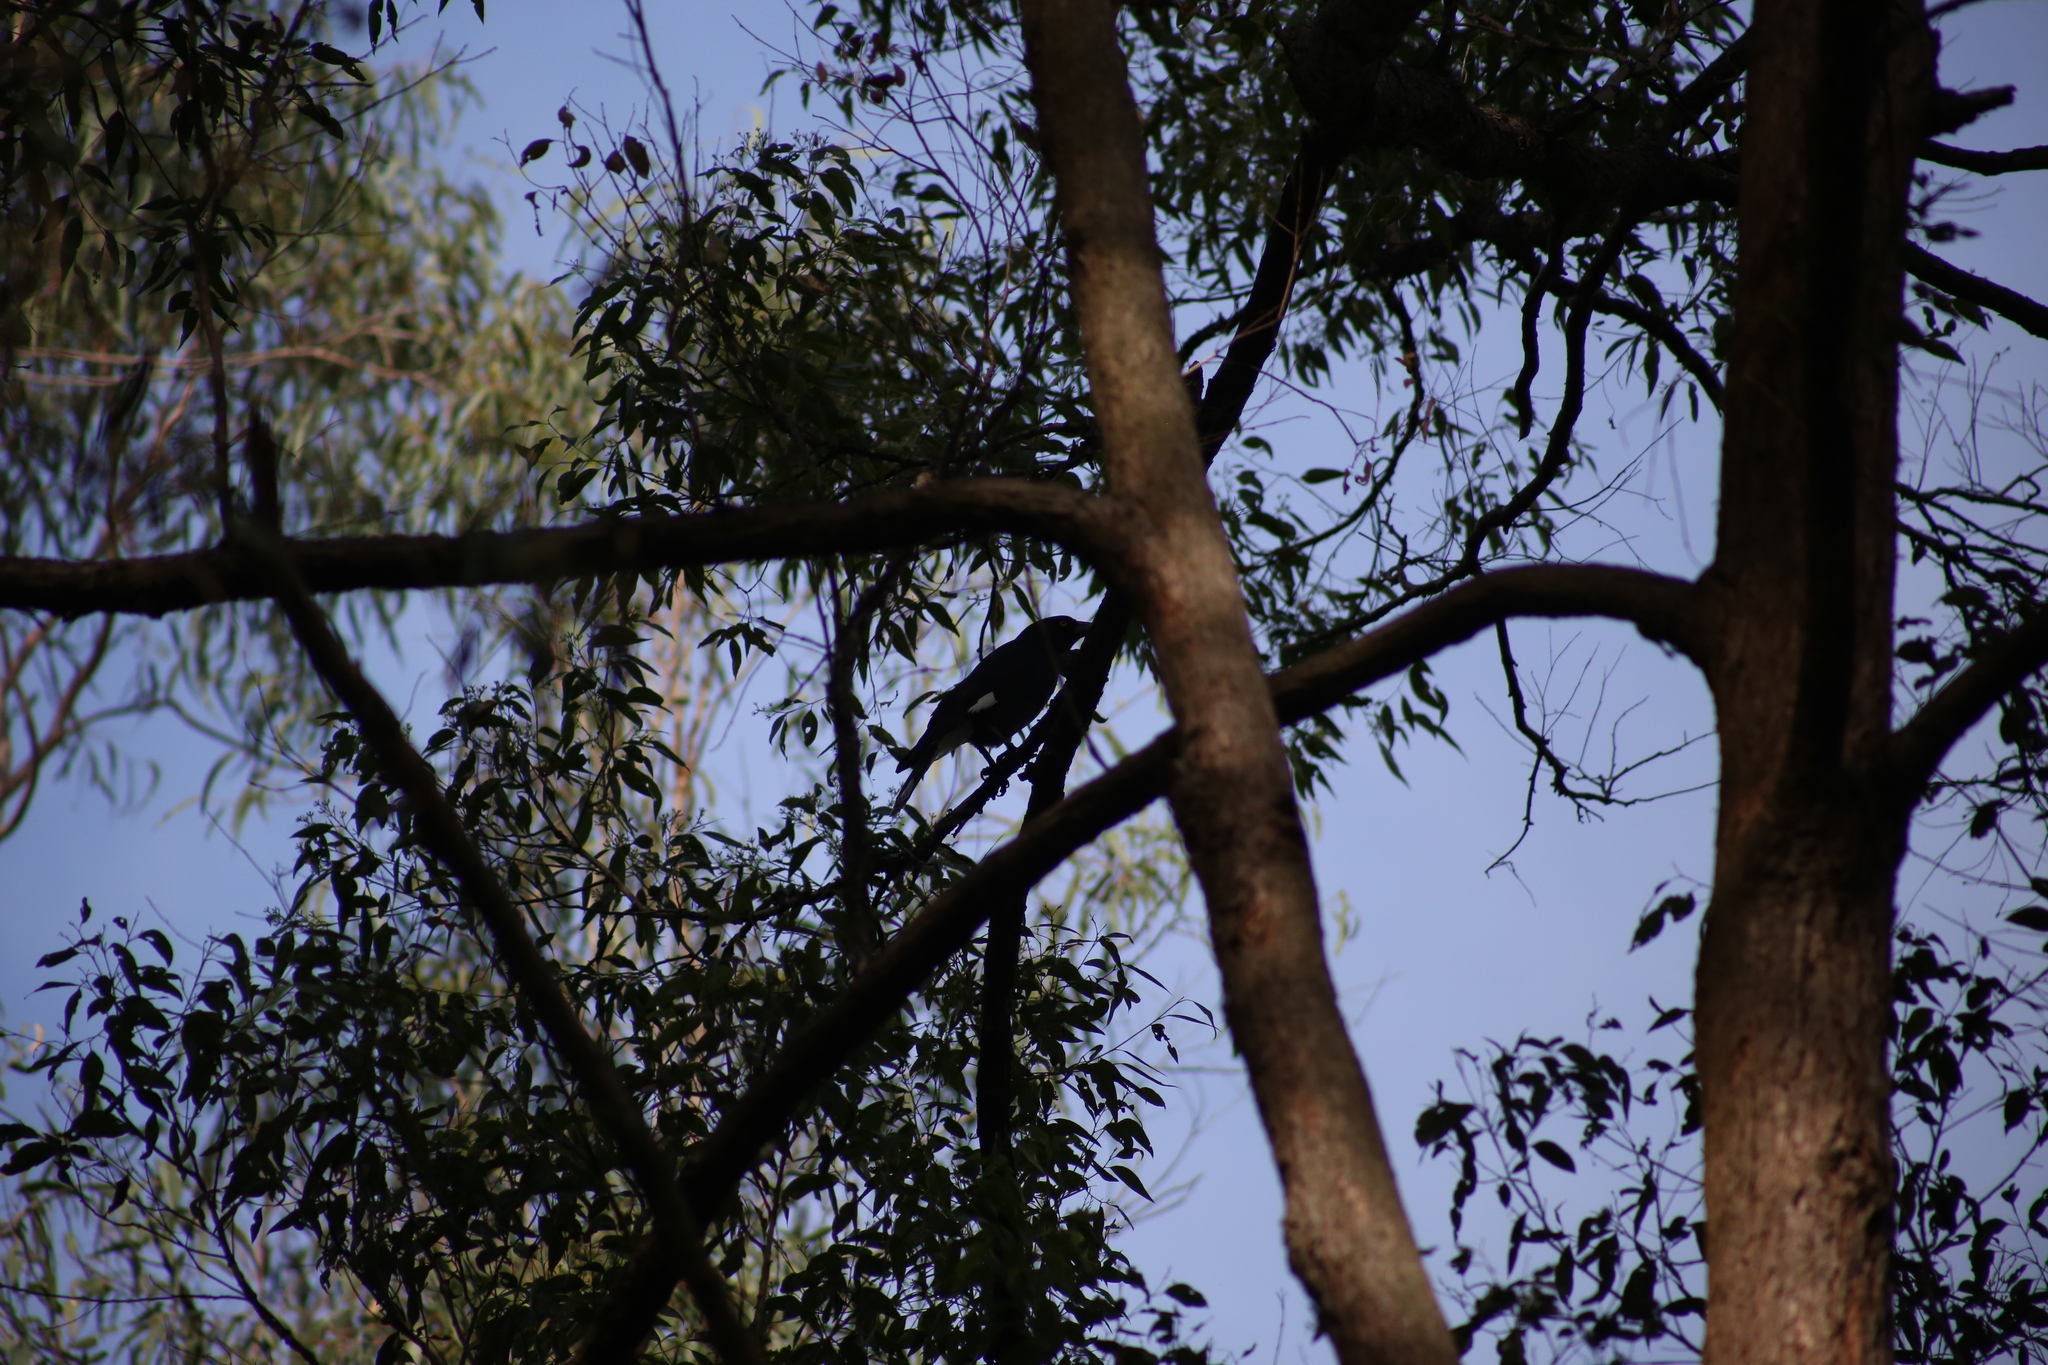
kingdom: Animalia
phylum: Chordata
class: Aves
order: Passeriformes
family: Cracticidae
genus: Strepera
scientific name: Strepera graculina
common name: Pied currawong
